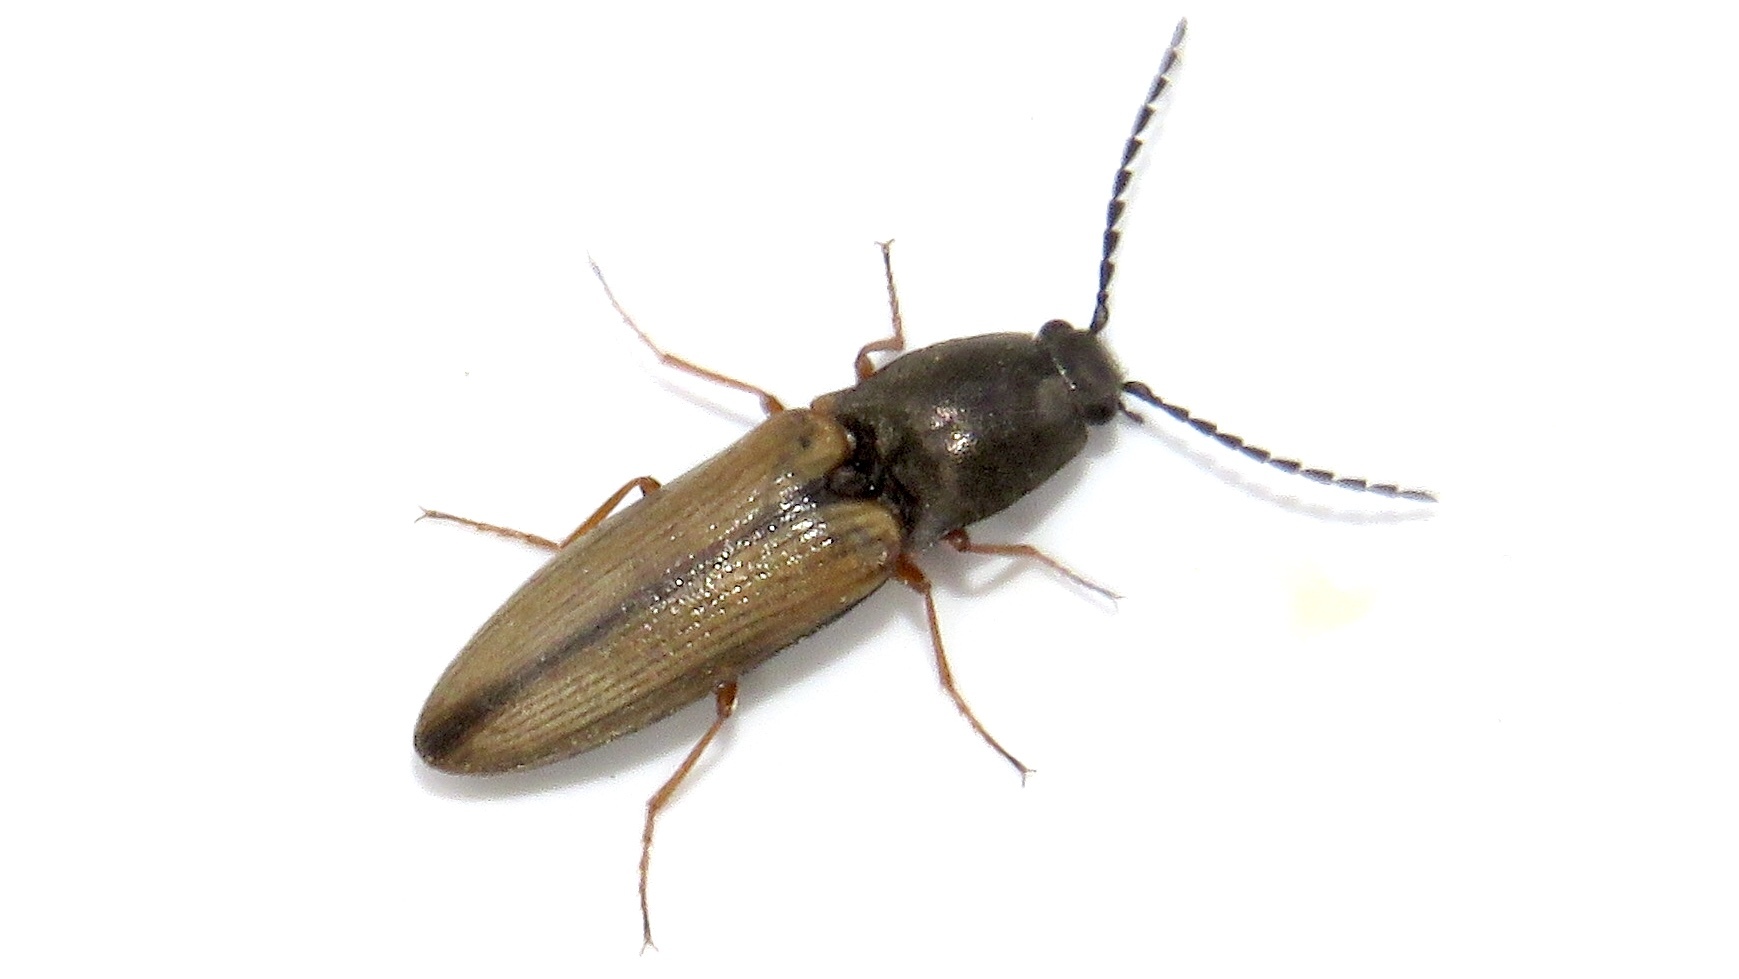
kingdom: Animalia
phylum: Arthropoda
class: Insecta
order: Coleoptera
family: Elateridae
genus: Corymbitodes
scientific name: Corymbitodes tarsalis
